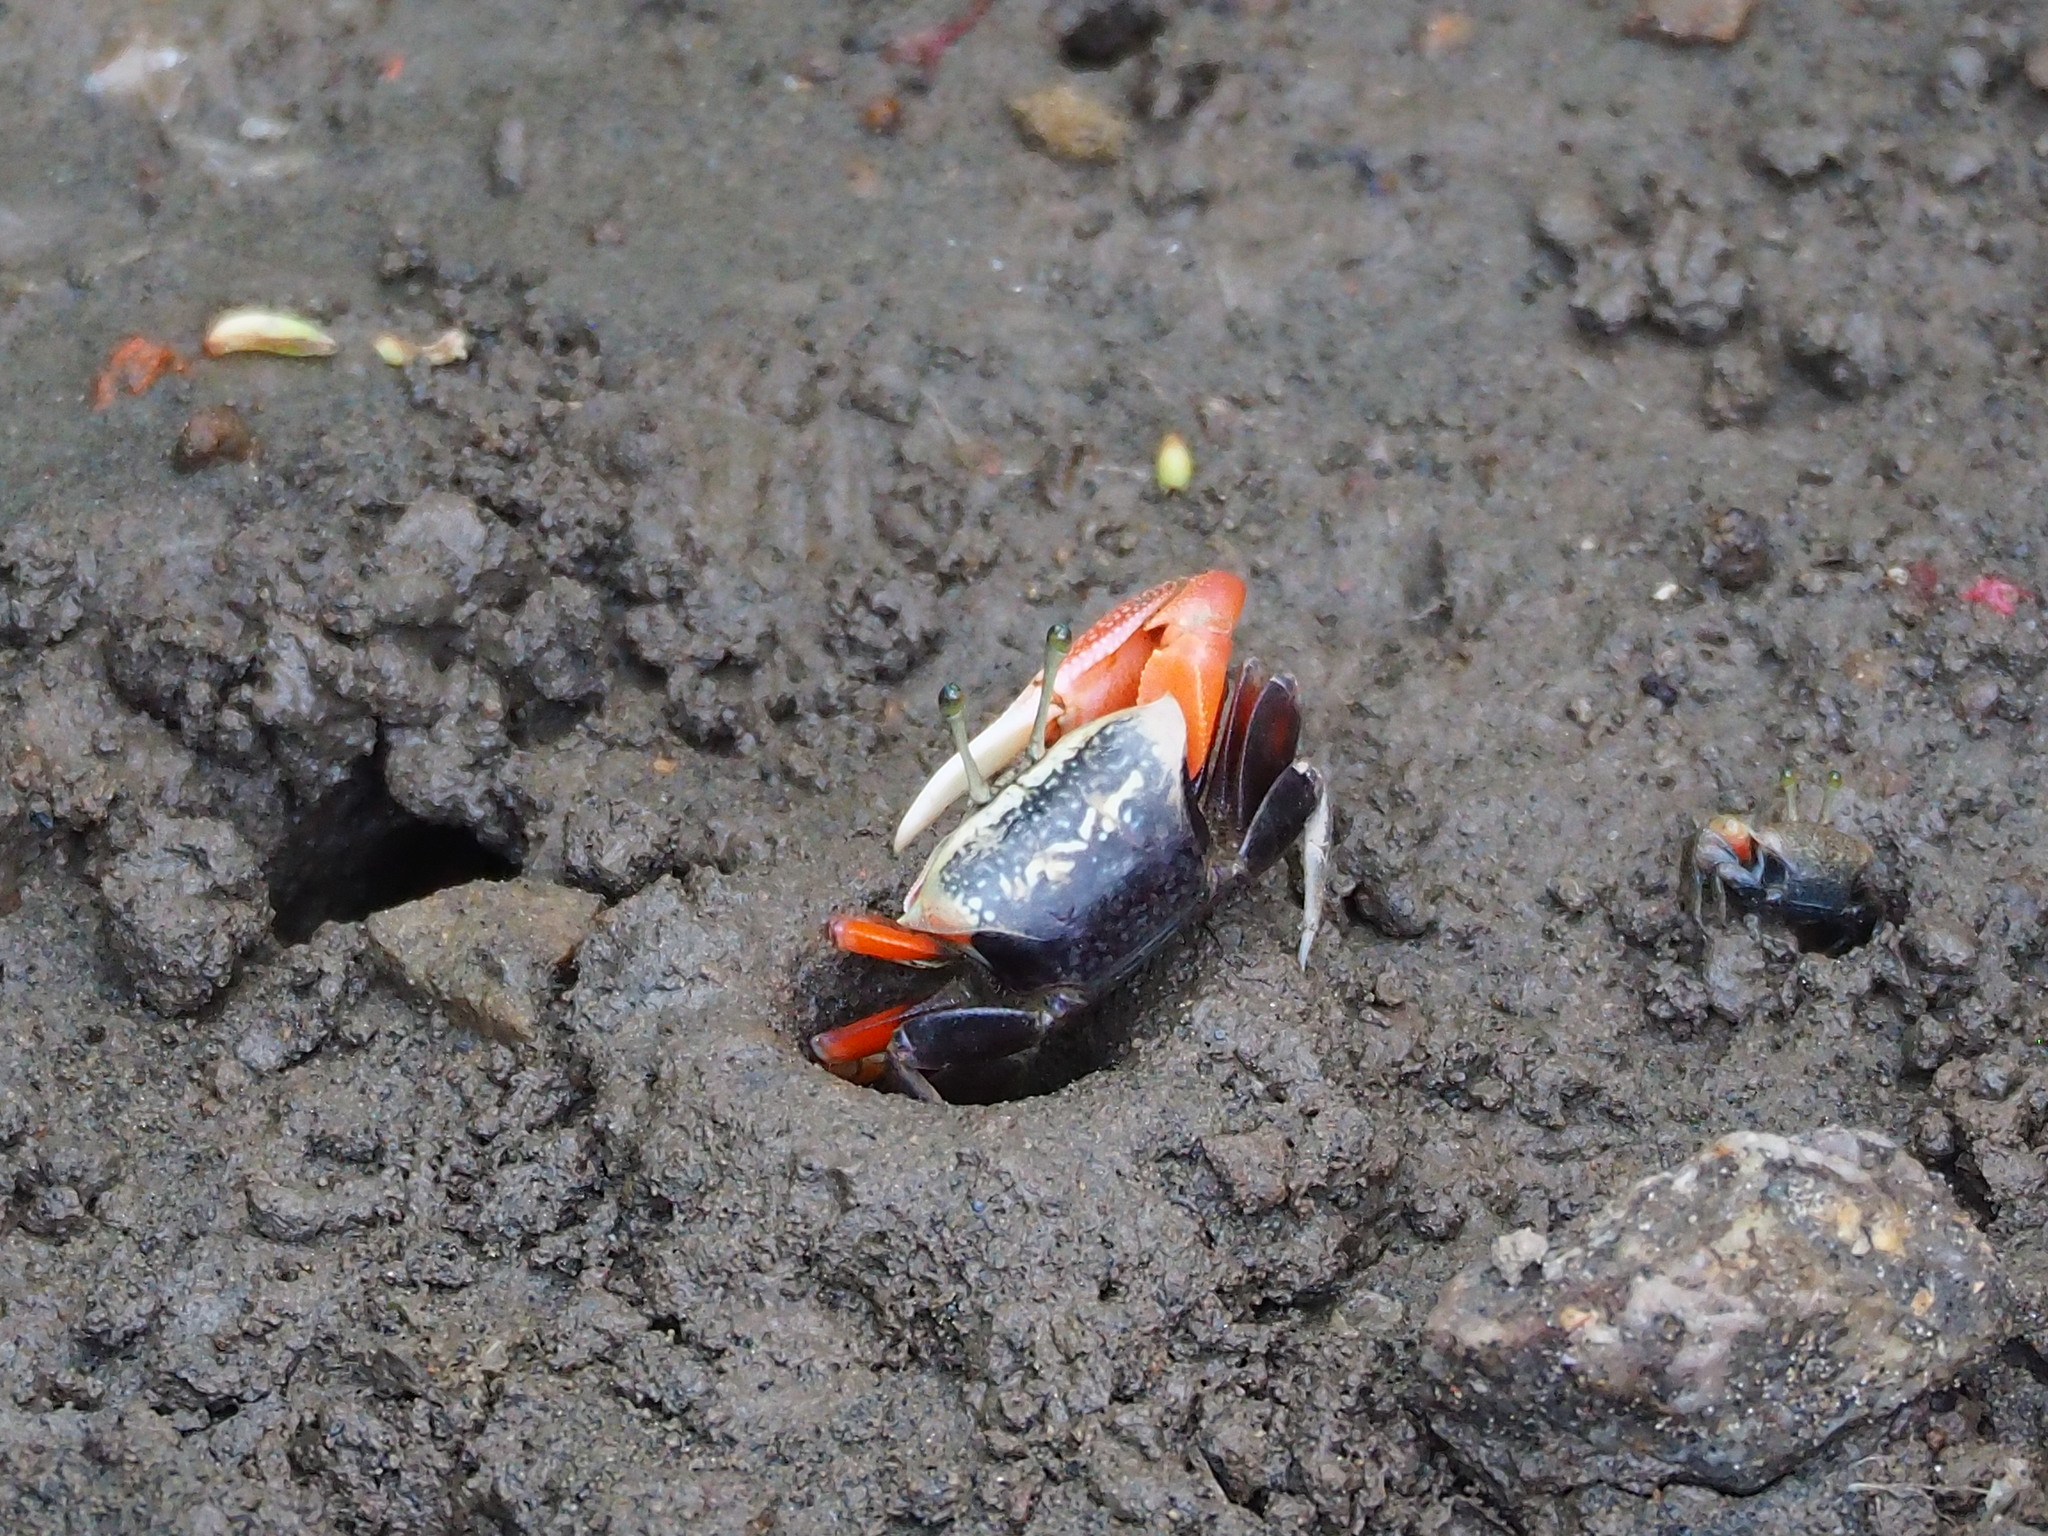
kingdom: Animalia
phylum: Arthropoda
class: Malacostraca
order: Decapoda
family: Ocypodidae
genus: Tubuca
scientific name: Tubuca arcuata
